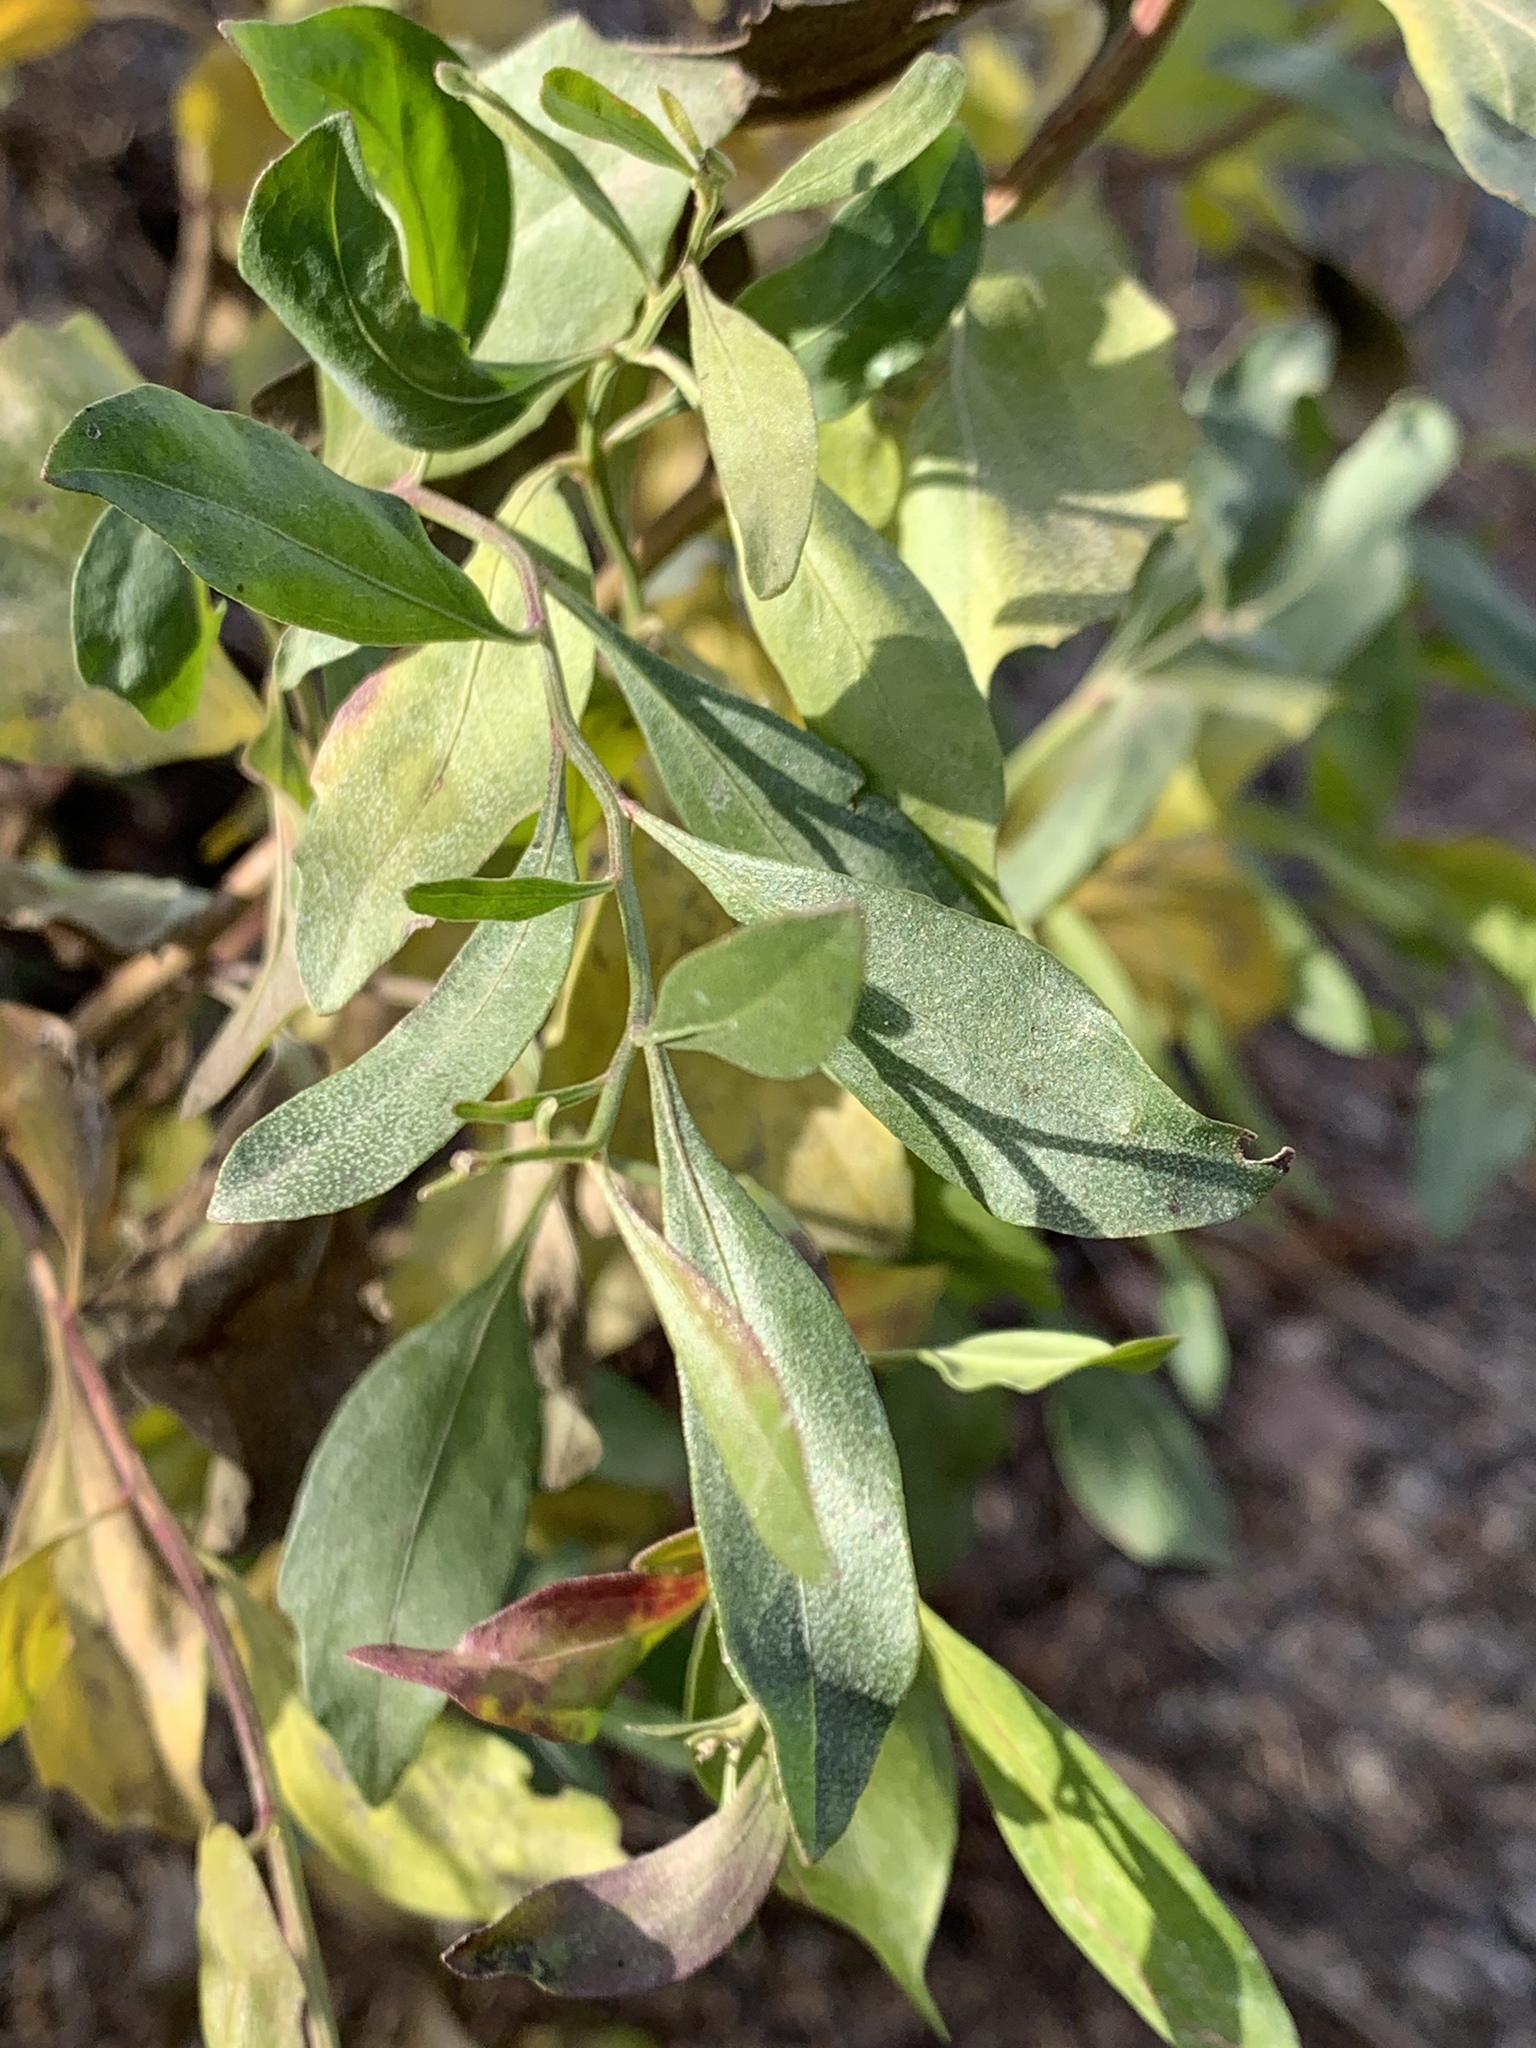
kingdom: Plantae
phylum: Tracheophyta
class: Magnoliopsida
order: Asterales
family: Asteraceae
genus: Baccharis
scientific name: Baccharis halimifolia
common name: Eastern baccharis
